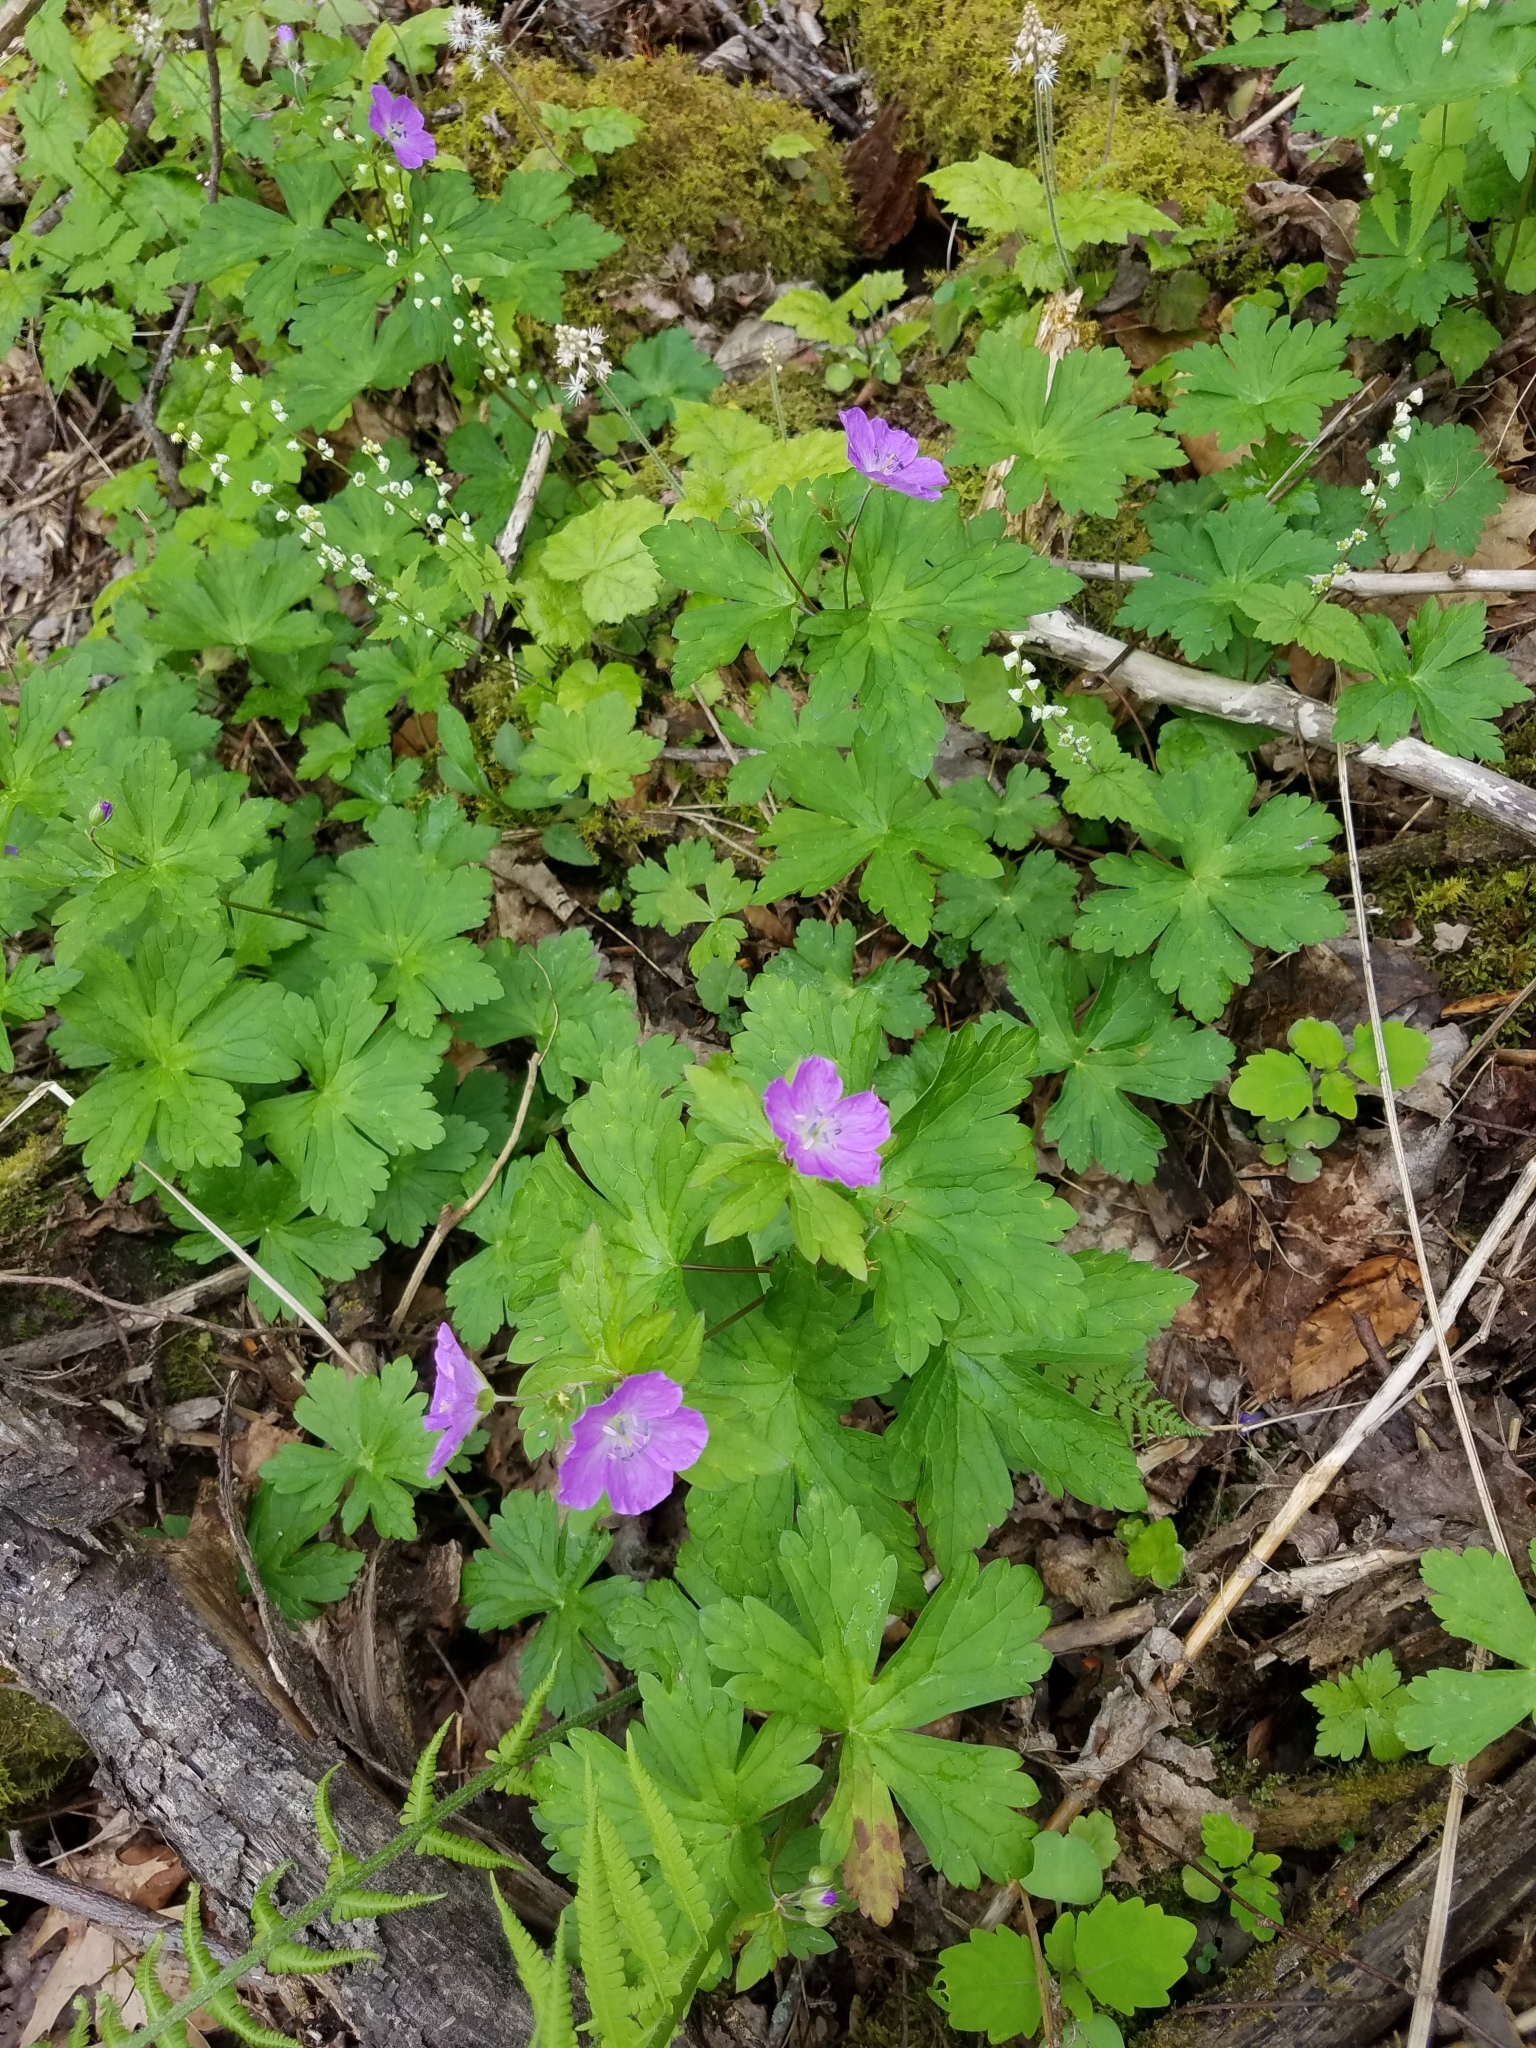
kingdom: Plantae
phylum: Tracheophyta
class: Magnoliopsida
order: Geraniales
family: Geraniaceae
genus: Geranium
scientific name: Geranium maculatum
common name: Spotted geranium
